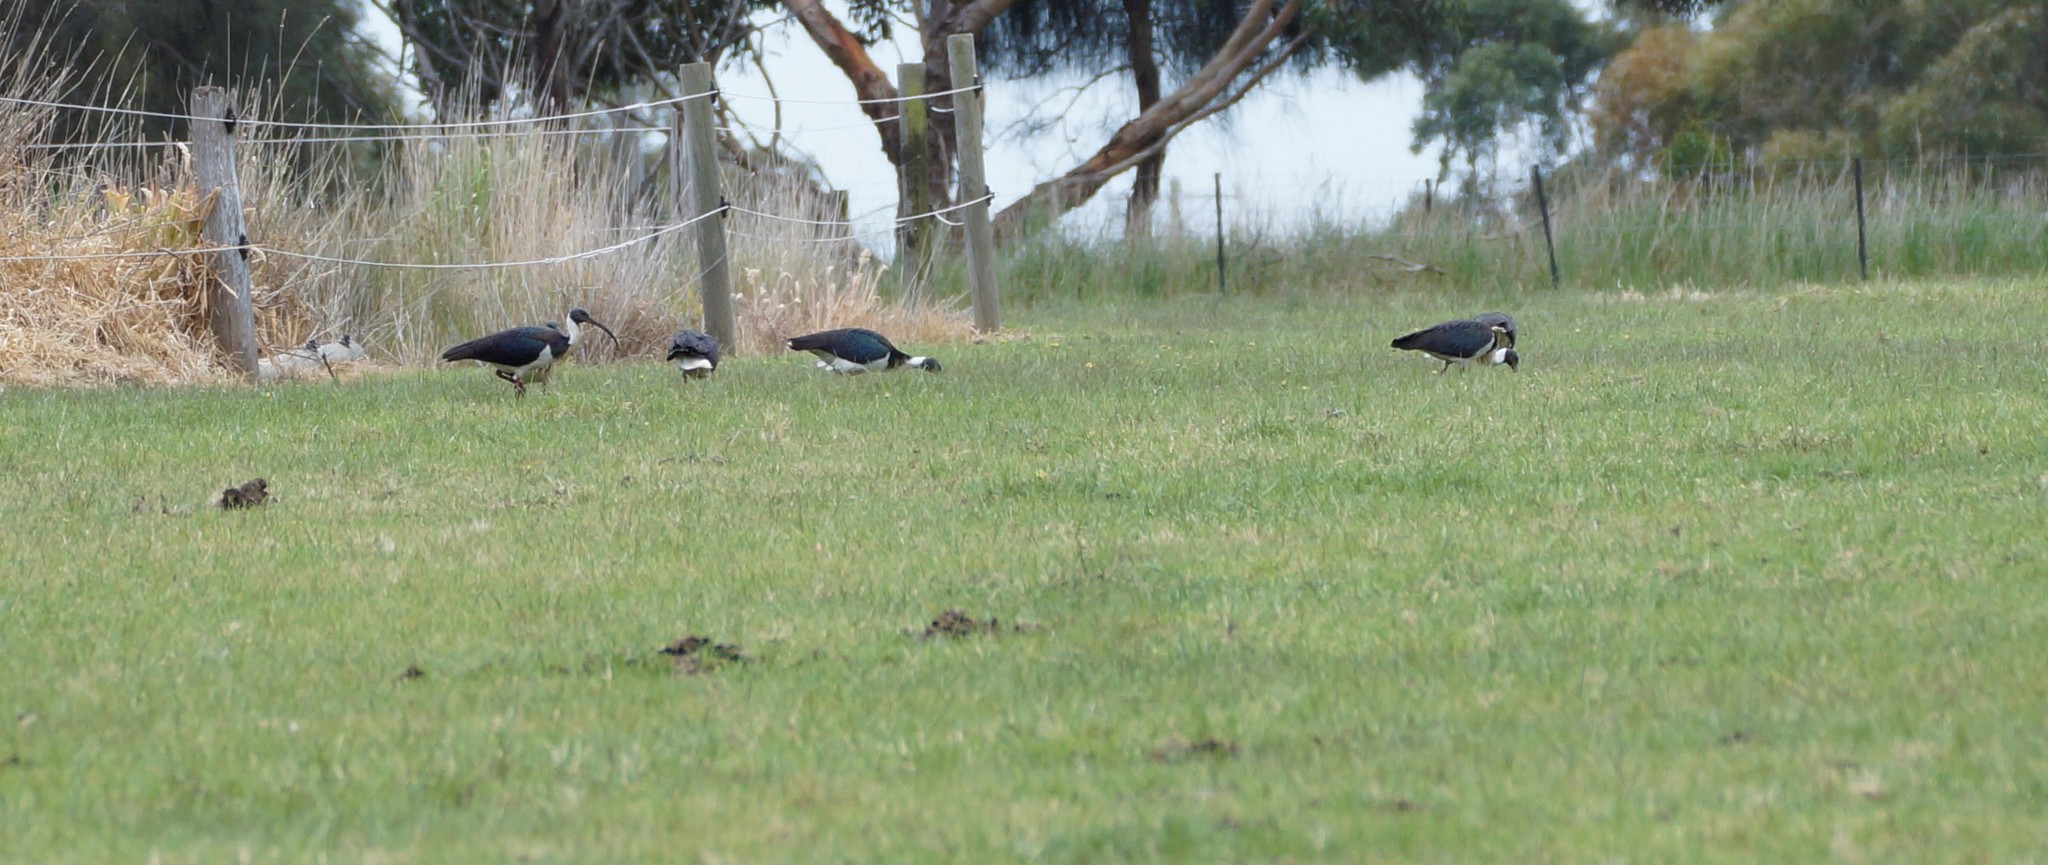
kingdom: Animalia
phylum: Chordata
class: Aves
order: Pelecaniformes
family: Threskiornithidae
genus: Threskiornis
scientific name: Threskiornis spinicollis
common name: Straw-necked ibis
